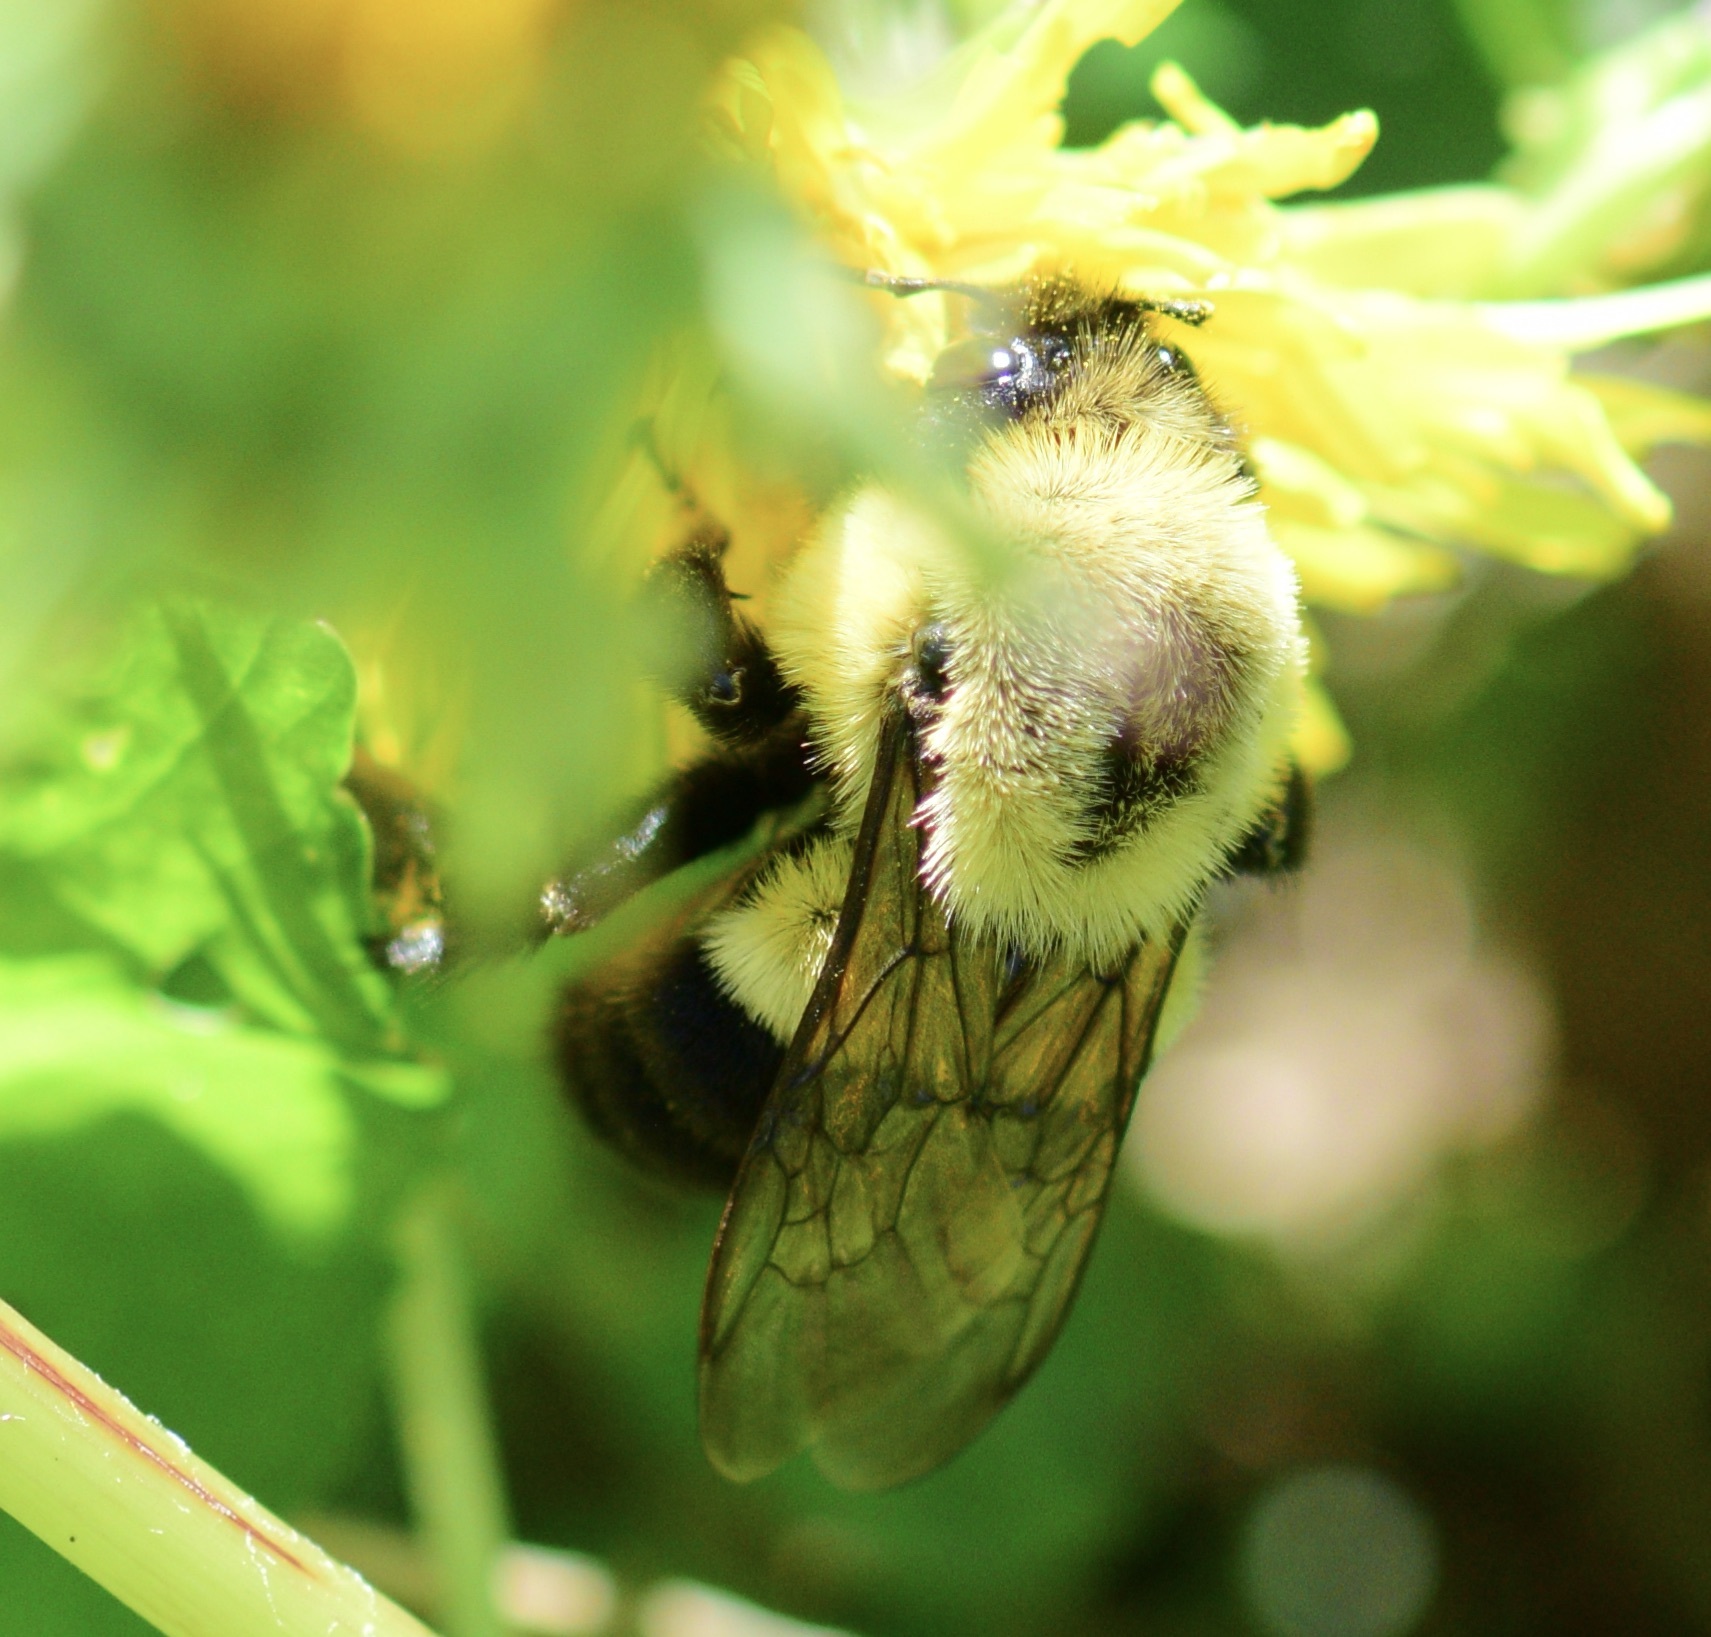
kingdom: Animalia
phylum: Arthropoda
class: Insecta
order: Hymenoptera
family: Apidae
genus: Bombus
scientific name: Bombus impatiens
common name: Common eastern bumble bee
